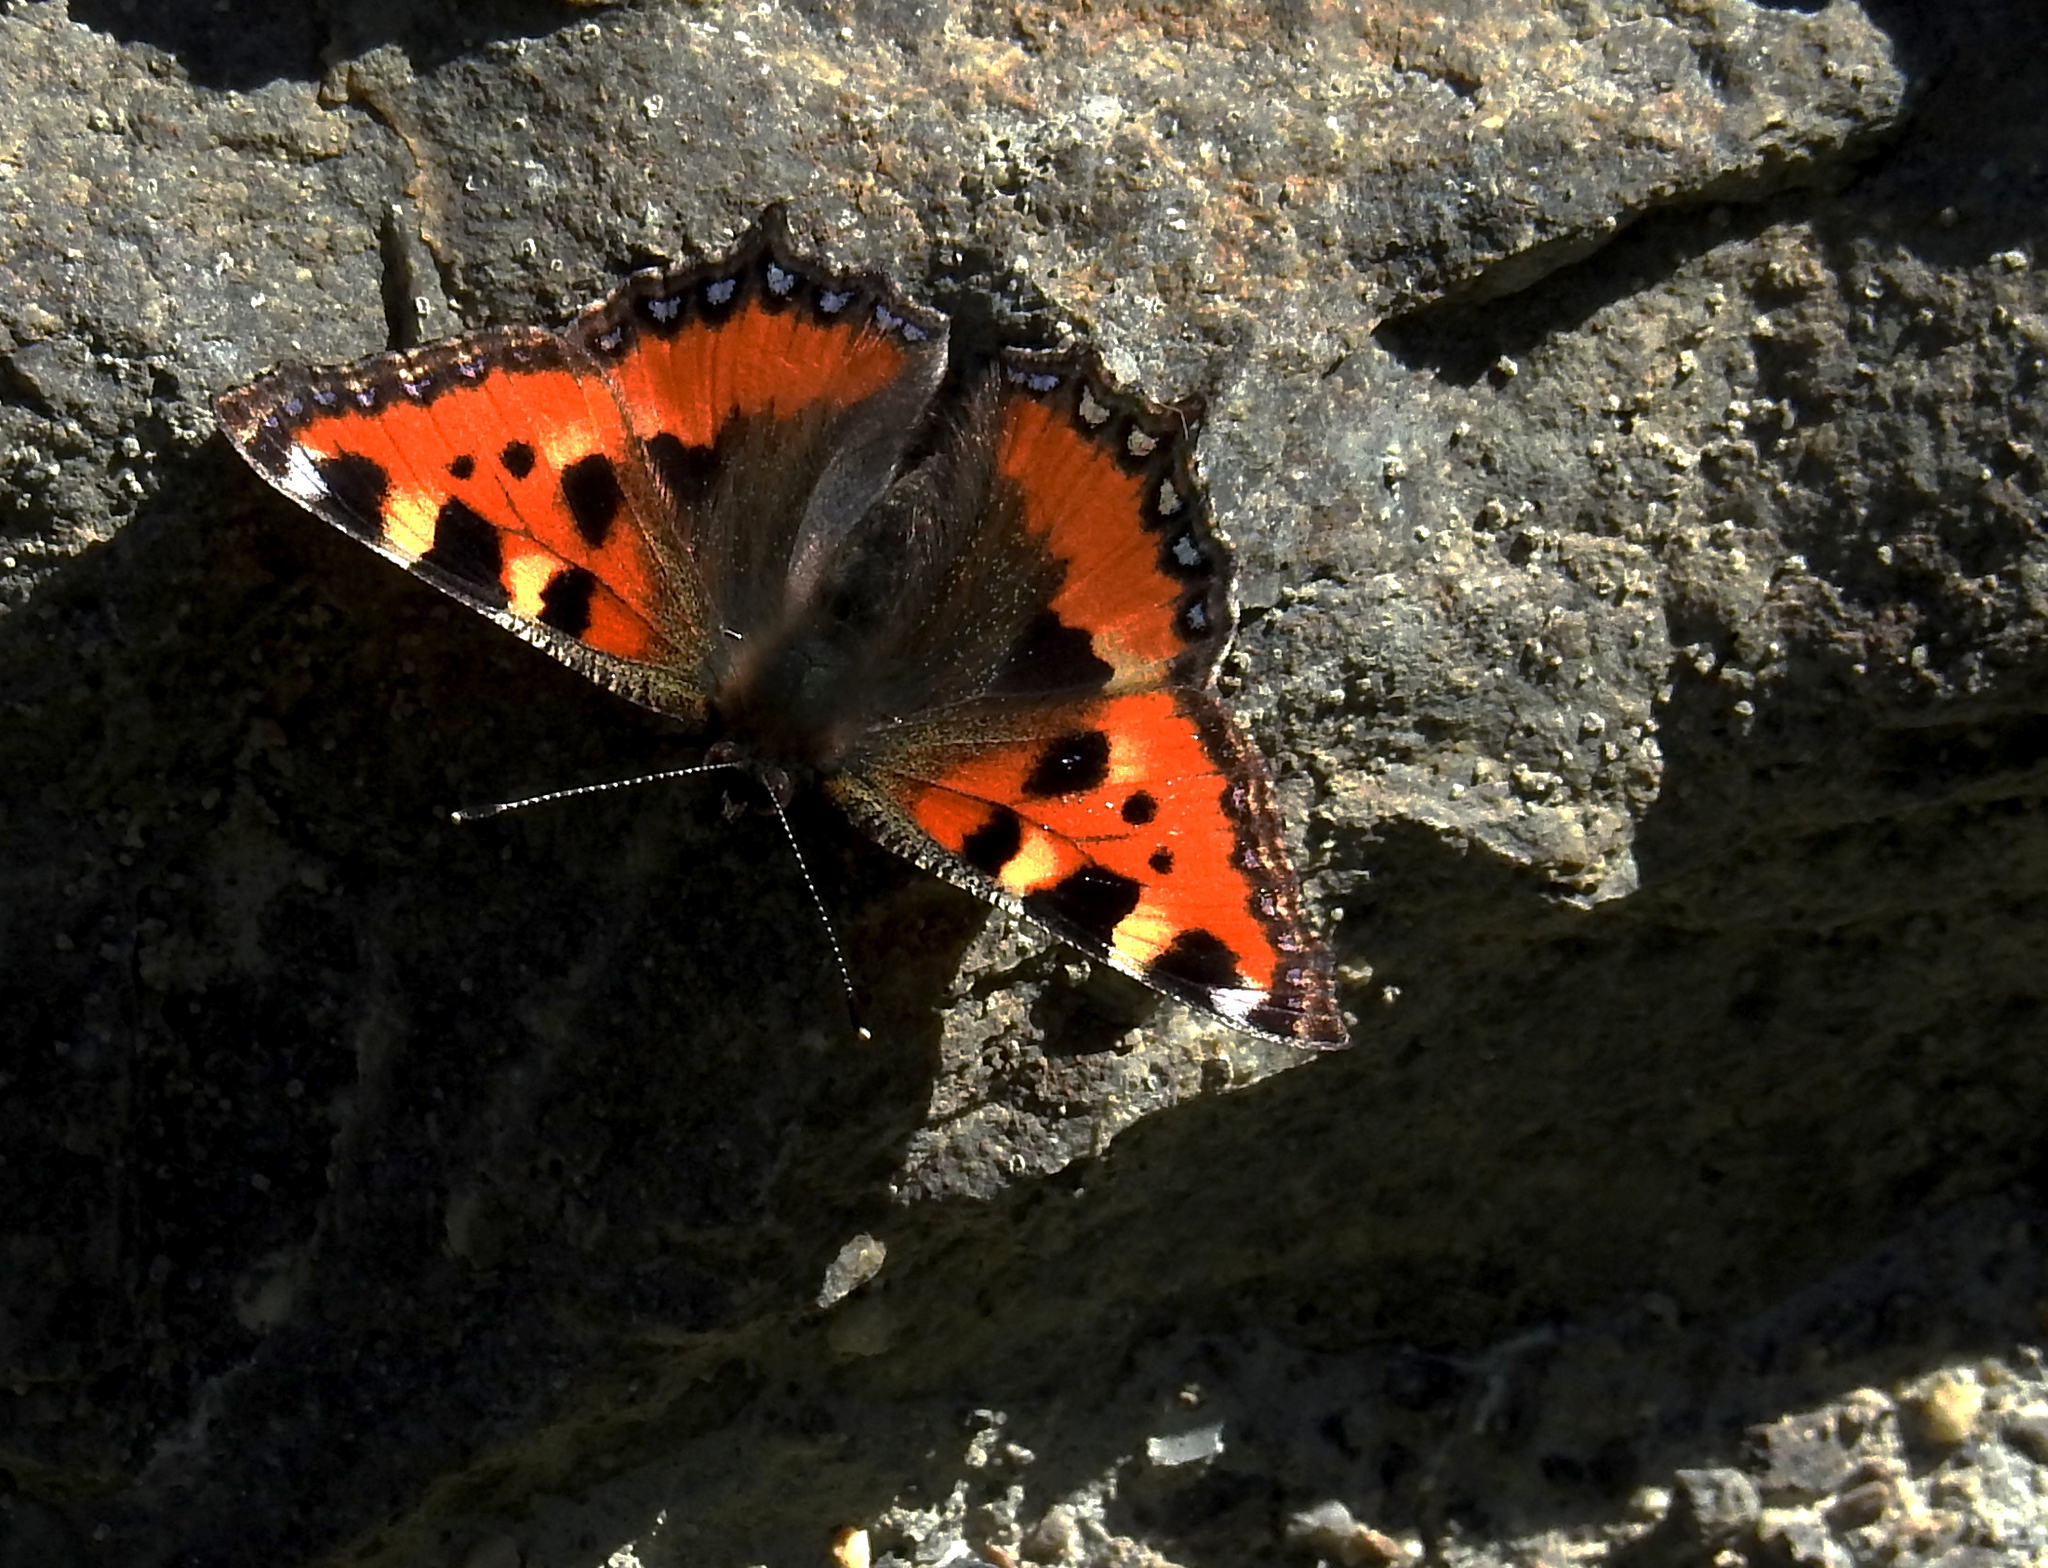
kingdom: Animalia
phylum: Arthropoda
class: Insecta
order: Lepidoptera
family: Nymphalidae
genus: Aglais
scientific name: Aglais urticae
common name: Small tortoiseshell
